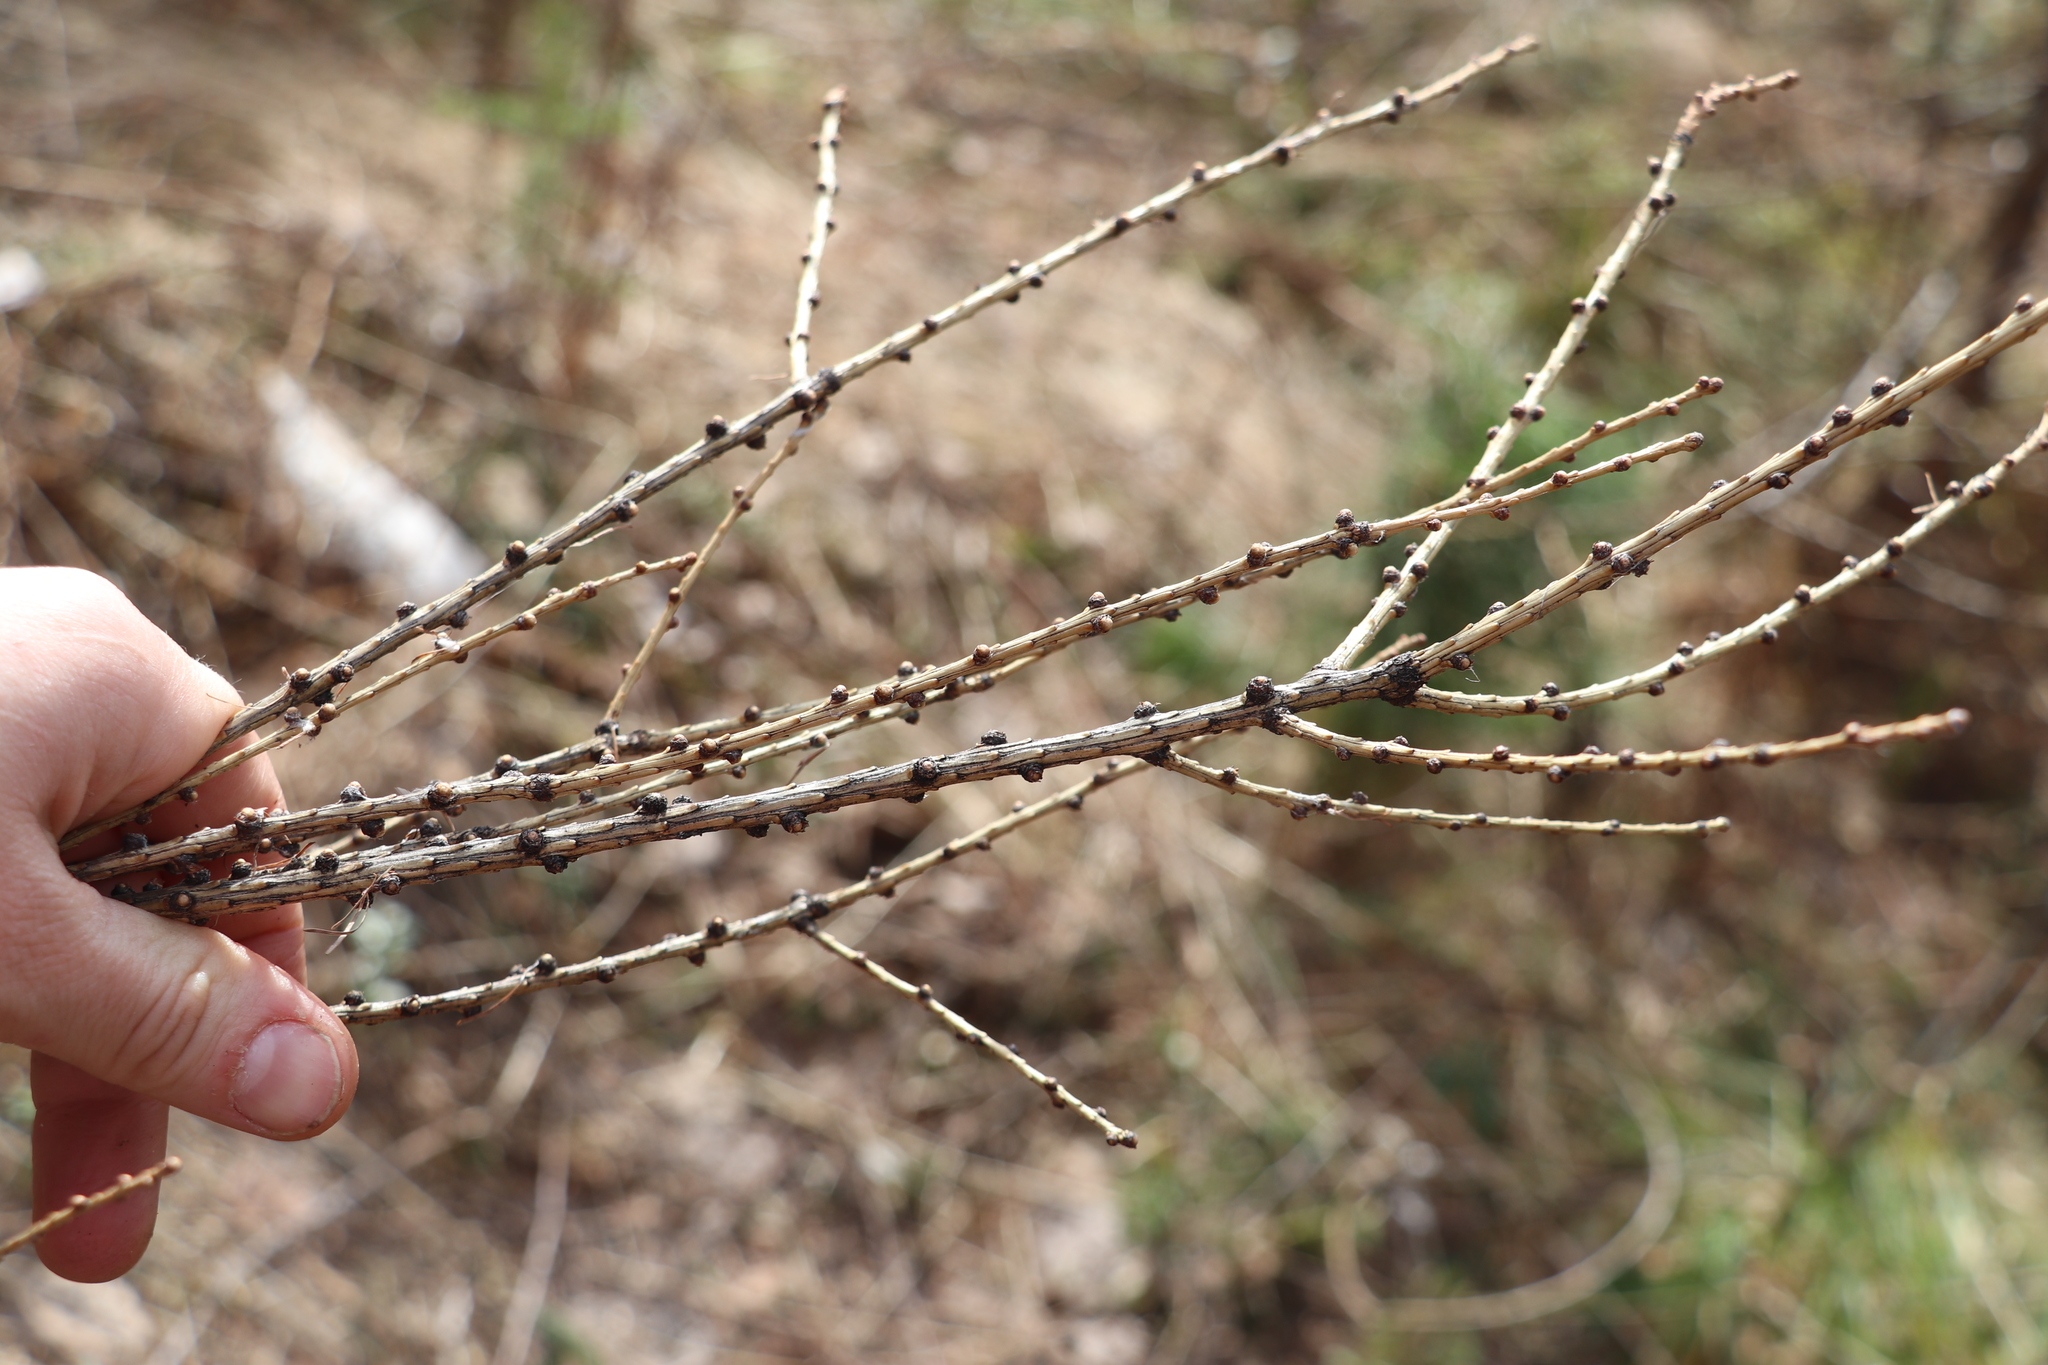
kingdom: Plantae
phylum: Tracheophyta
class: Pinopsida
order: Pinales
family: Pinaceae
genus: Larix
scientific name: Larix sibirica
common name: Siberian larch
